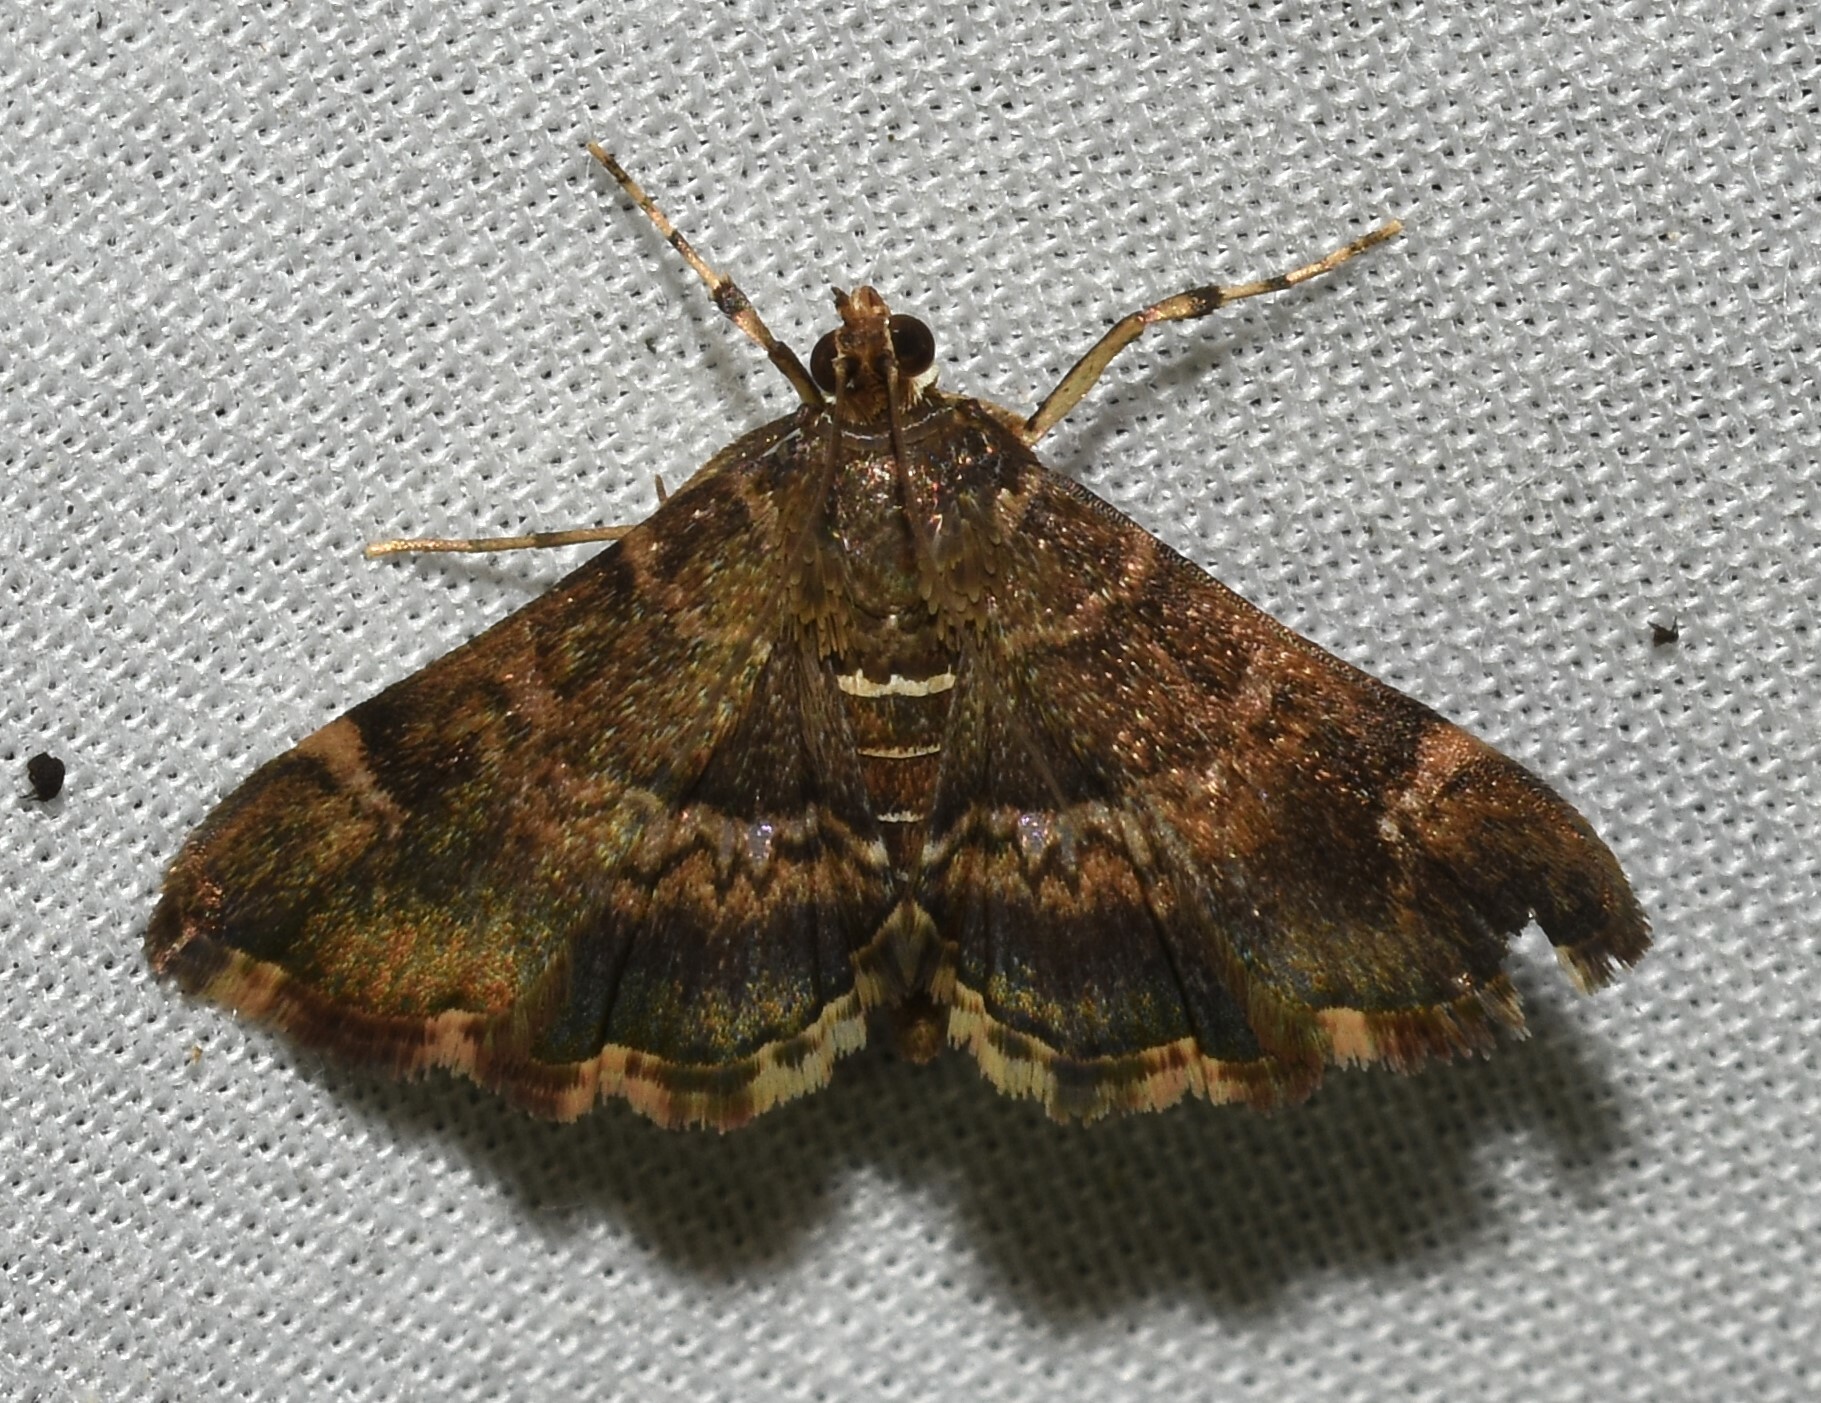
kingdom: Animalia
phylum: Arthropoda
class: Insecta
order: Lepidoptera
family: Crambidae
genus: Hymenia
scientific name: Hymenia perspectalis
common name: Spotted beet webworm
